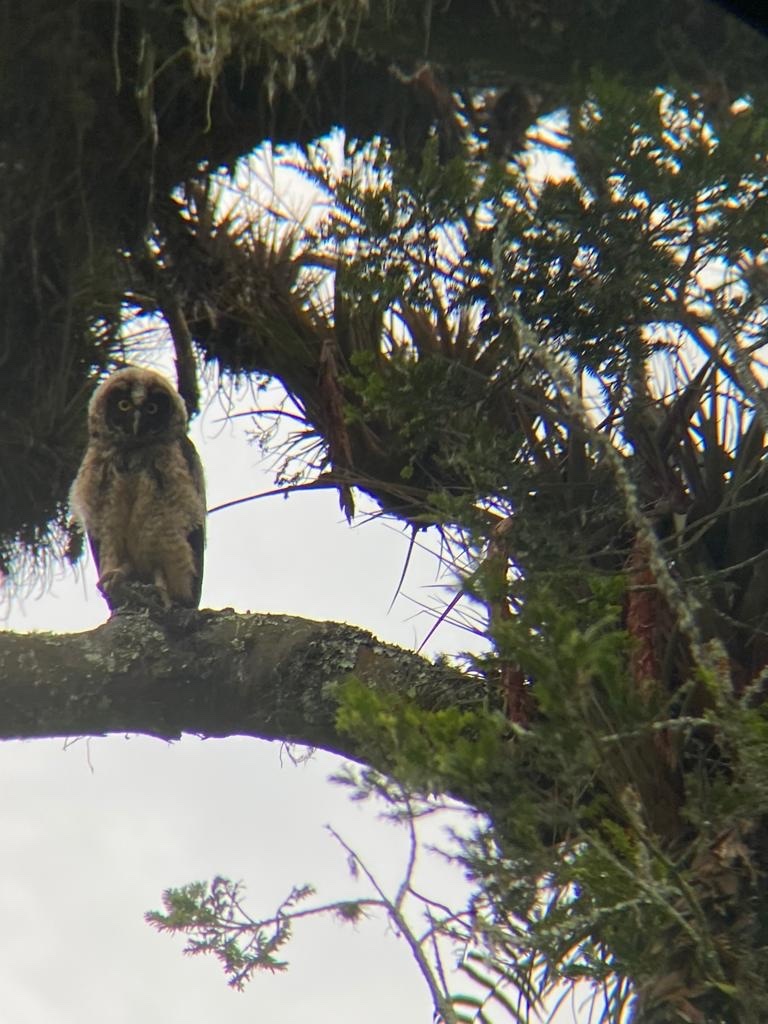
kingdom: Animalia
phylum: Chordata
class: Aves
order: Strigiformes
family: Strigidae
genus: Asio
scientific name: Asio stygius
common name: Stygian owl
